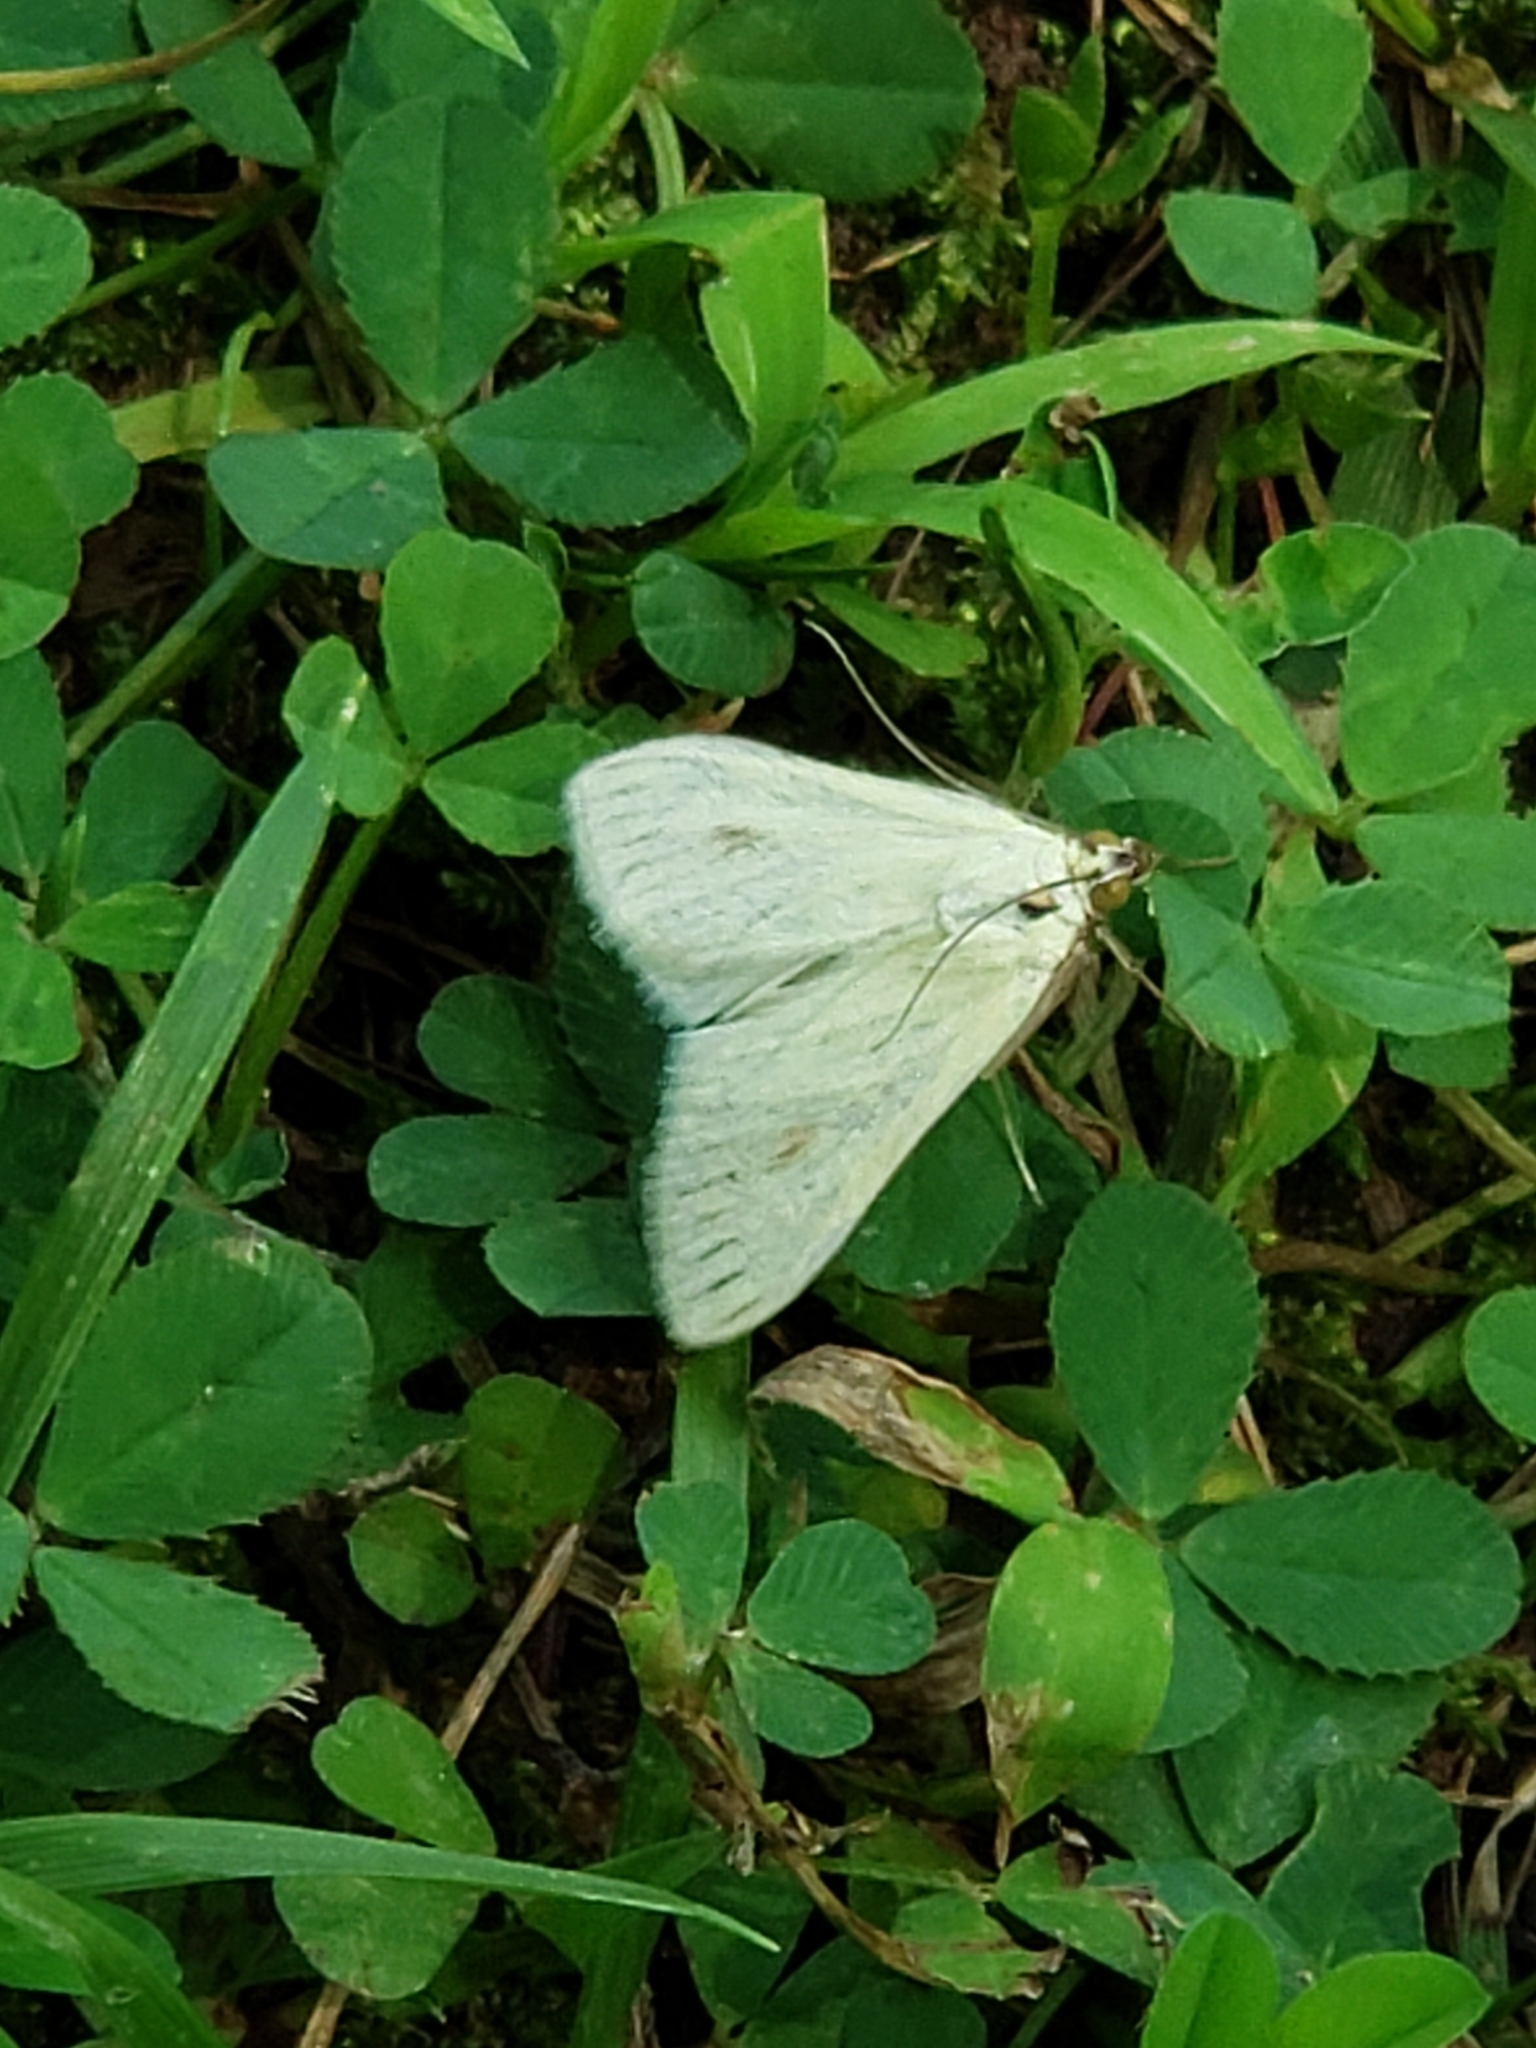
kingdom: Animalia
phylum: Arthropoda
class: Insecta
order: Lepidoptera
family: Crambidae
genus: Sitochroa
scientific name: Sitochroa palealis
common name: Greenish-yellow sitochroa moth
